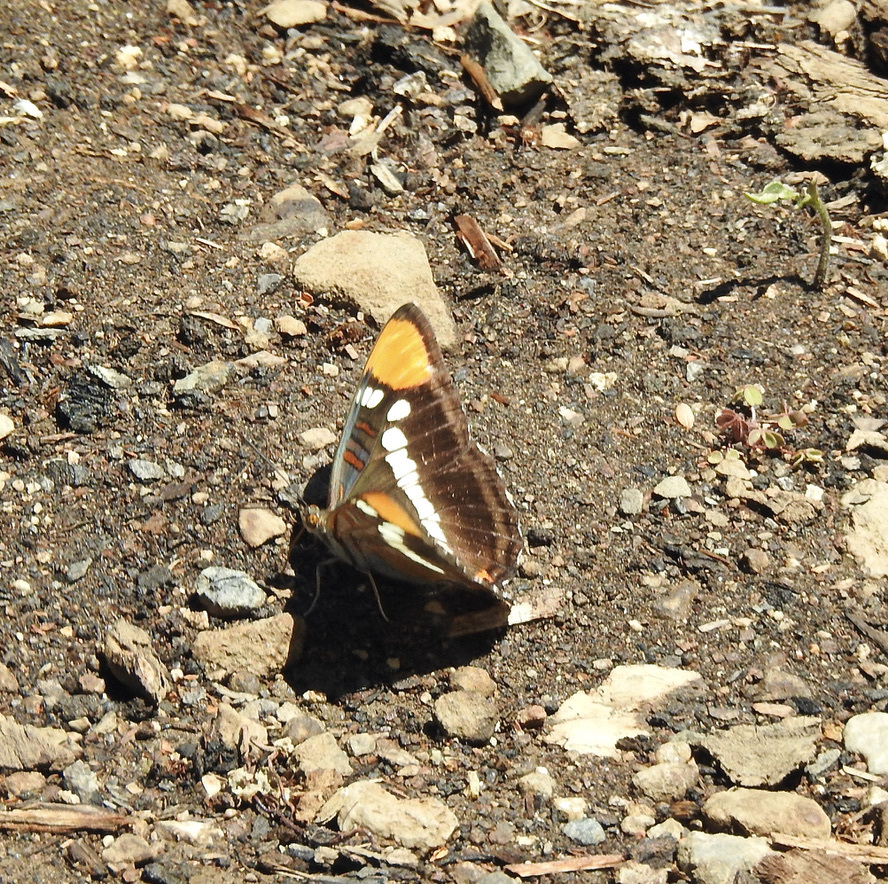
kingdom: Animalia
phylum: Arthropoda
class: Insecta
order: Lepidoptera
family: Nymphalidae
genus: Limenitis
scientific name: Limenitis bredowii
